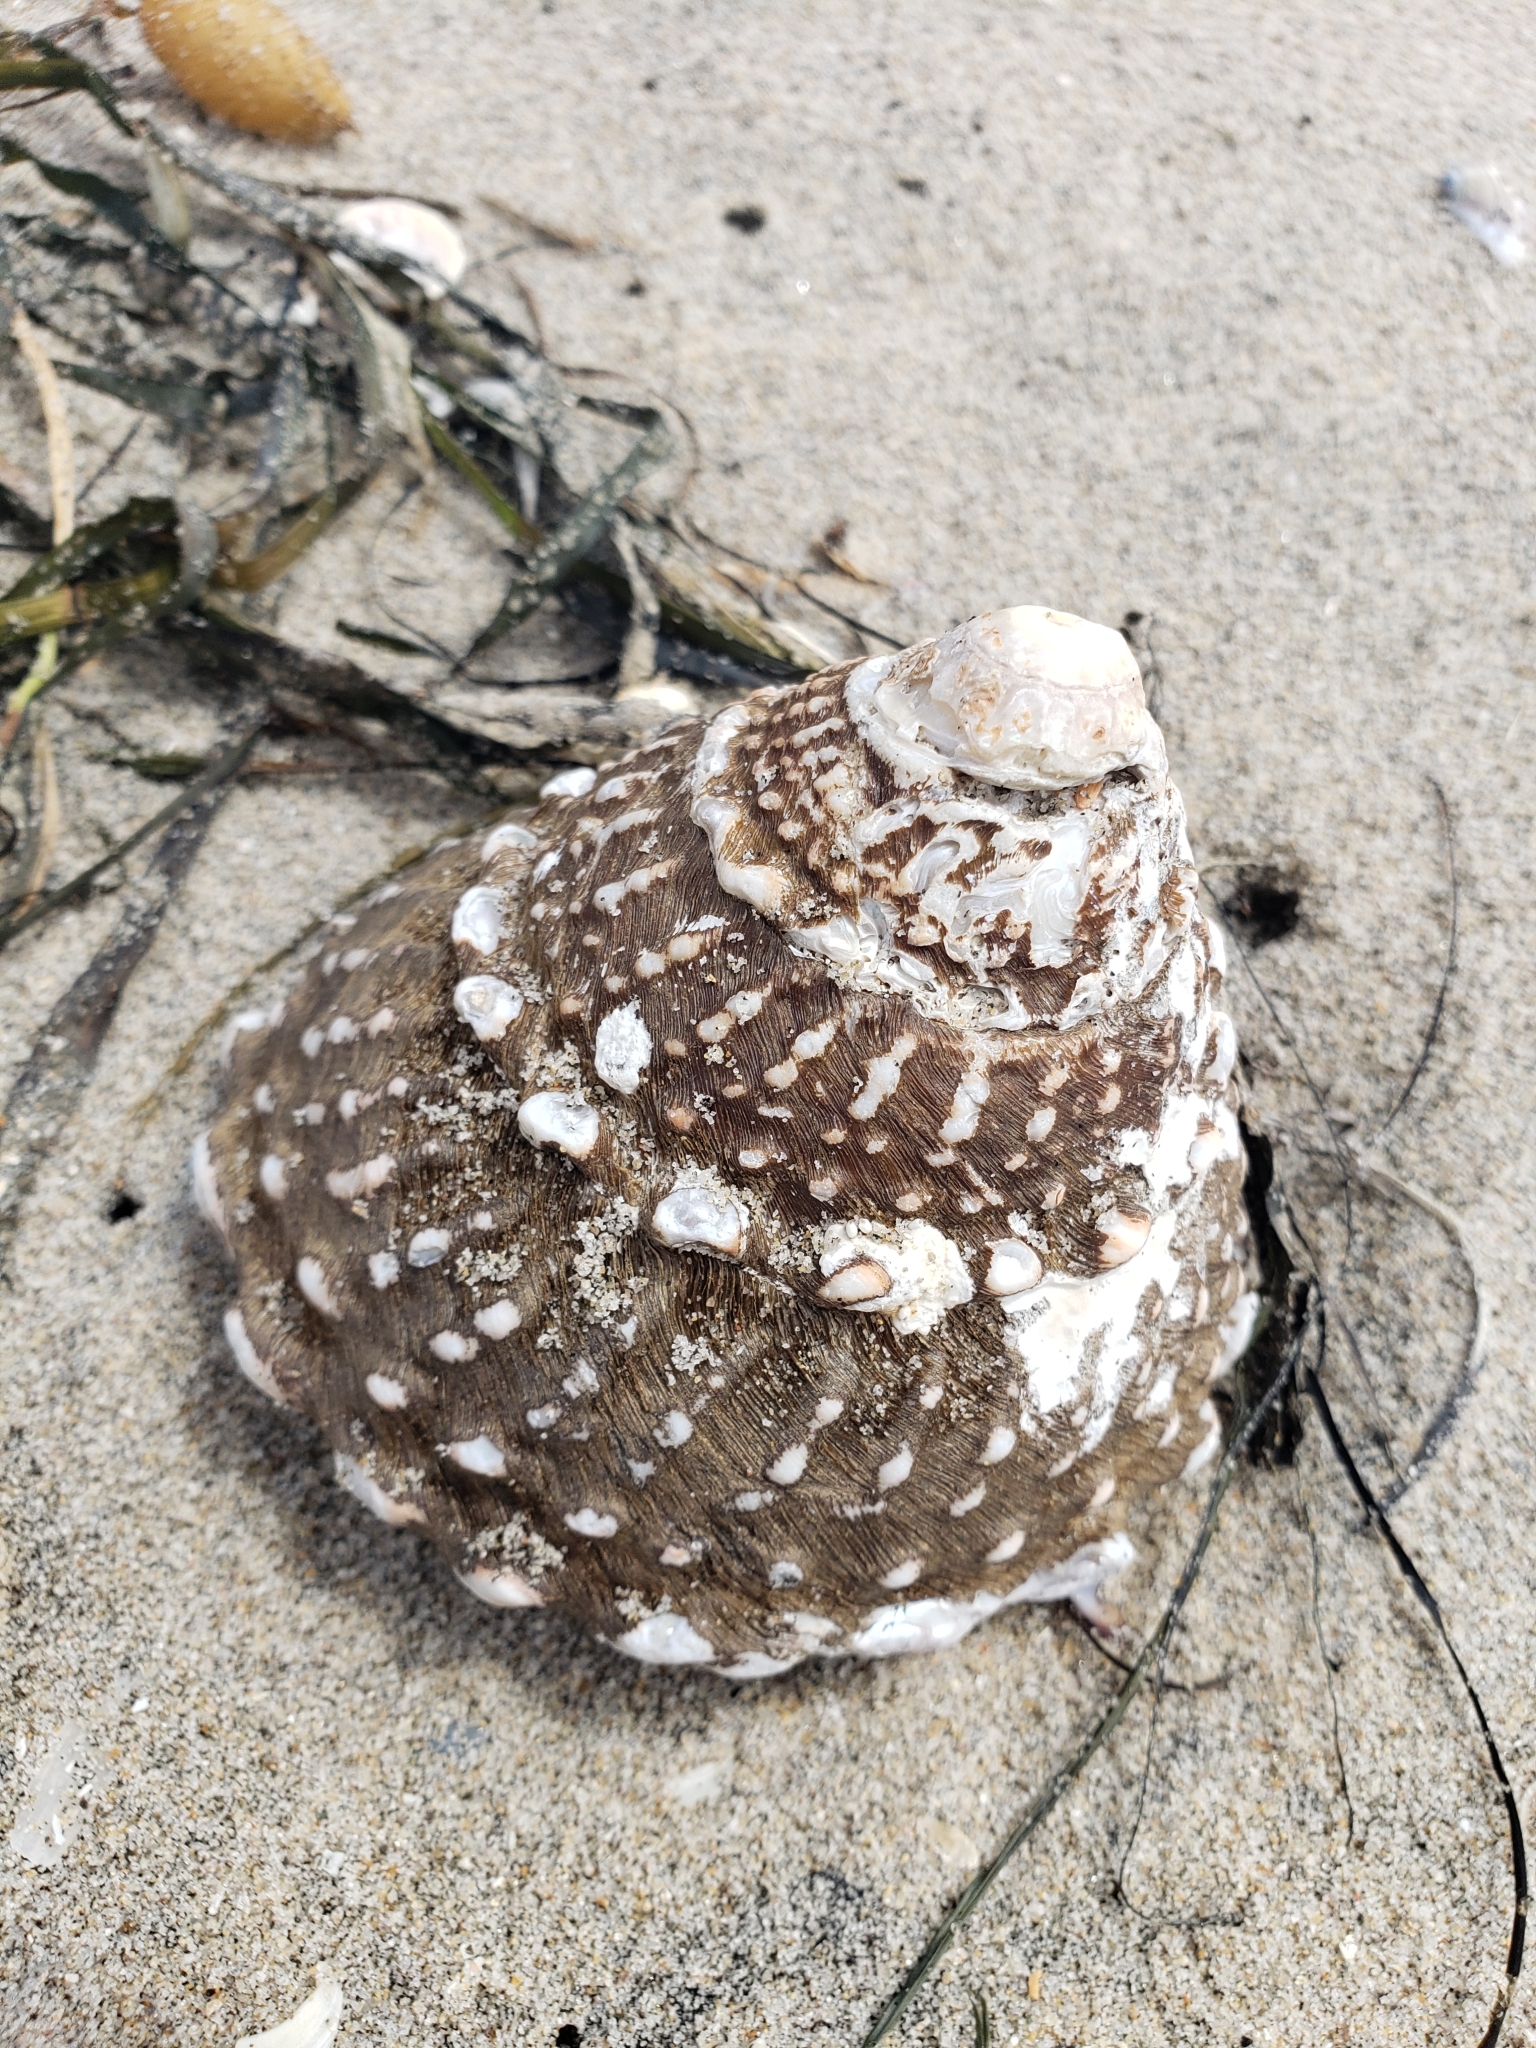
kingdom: Animalia
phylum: Mollusca
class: Gastropoda
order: Trochida
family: Turbinidae
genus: Megastraea
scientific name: Megastraea undosa
